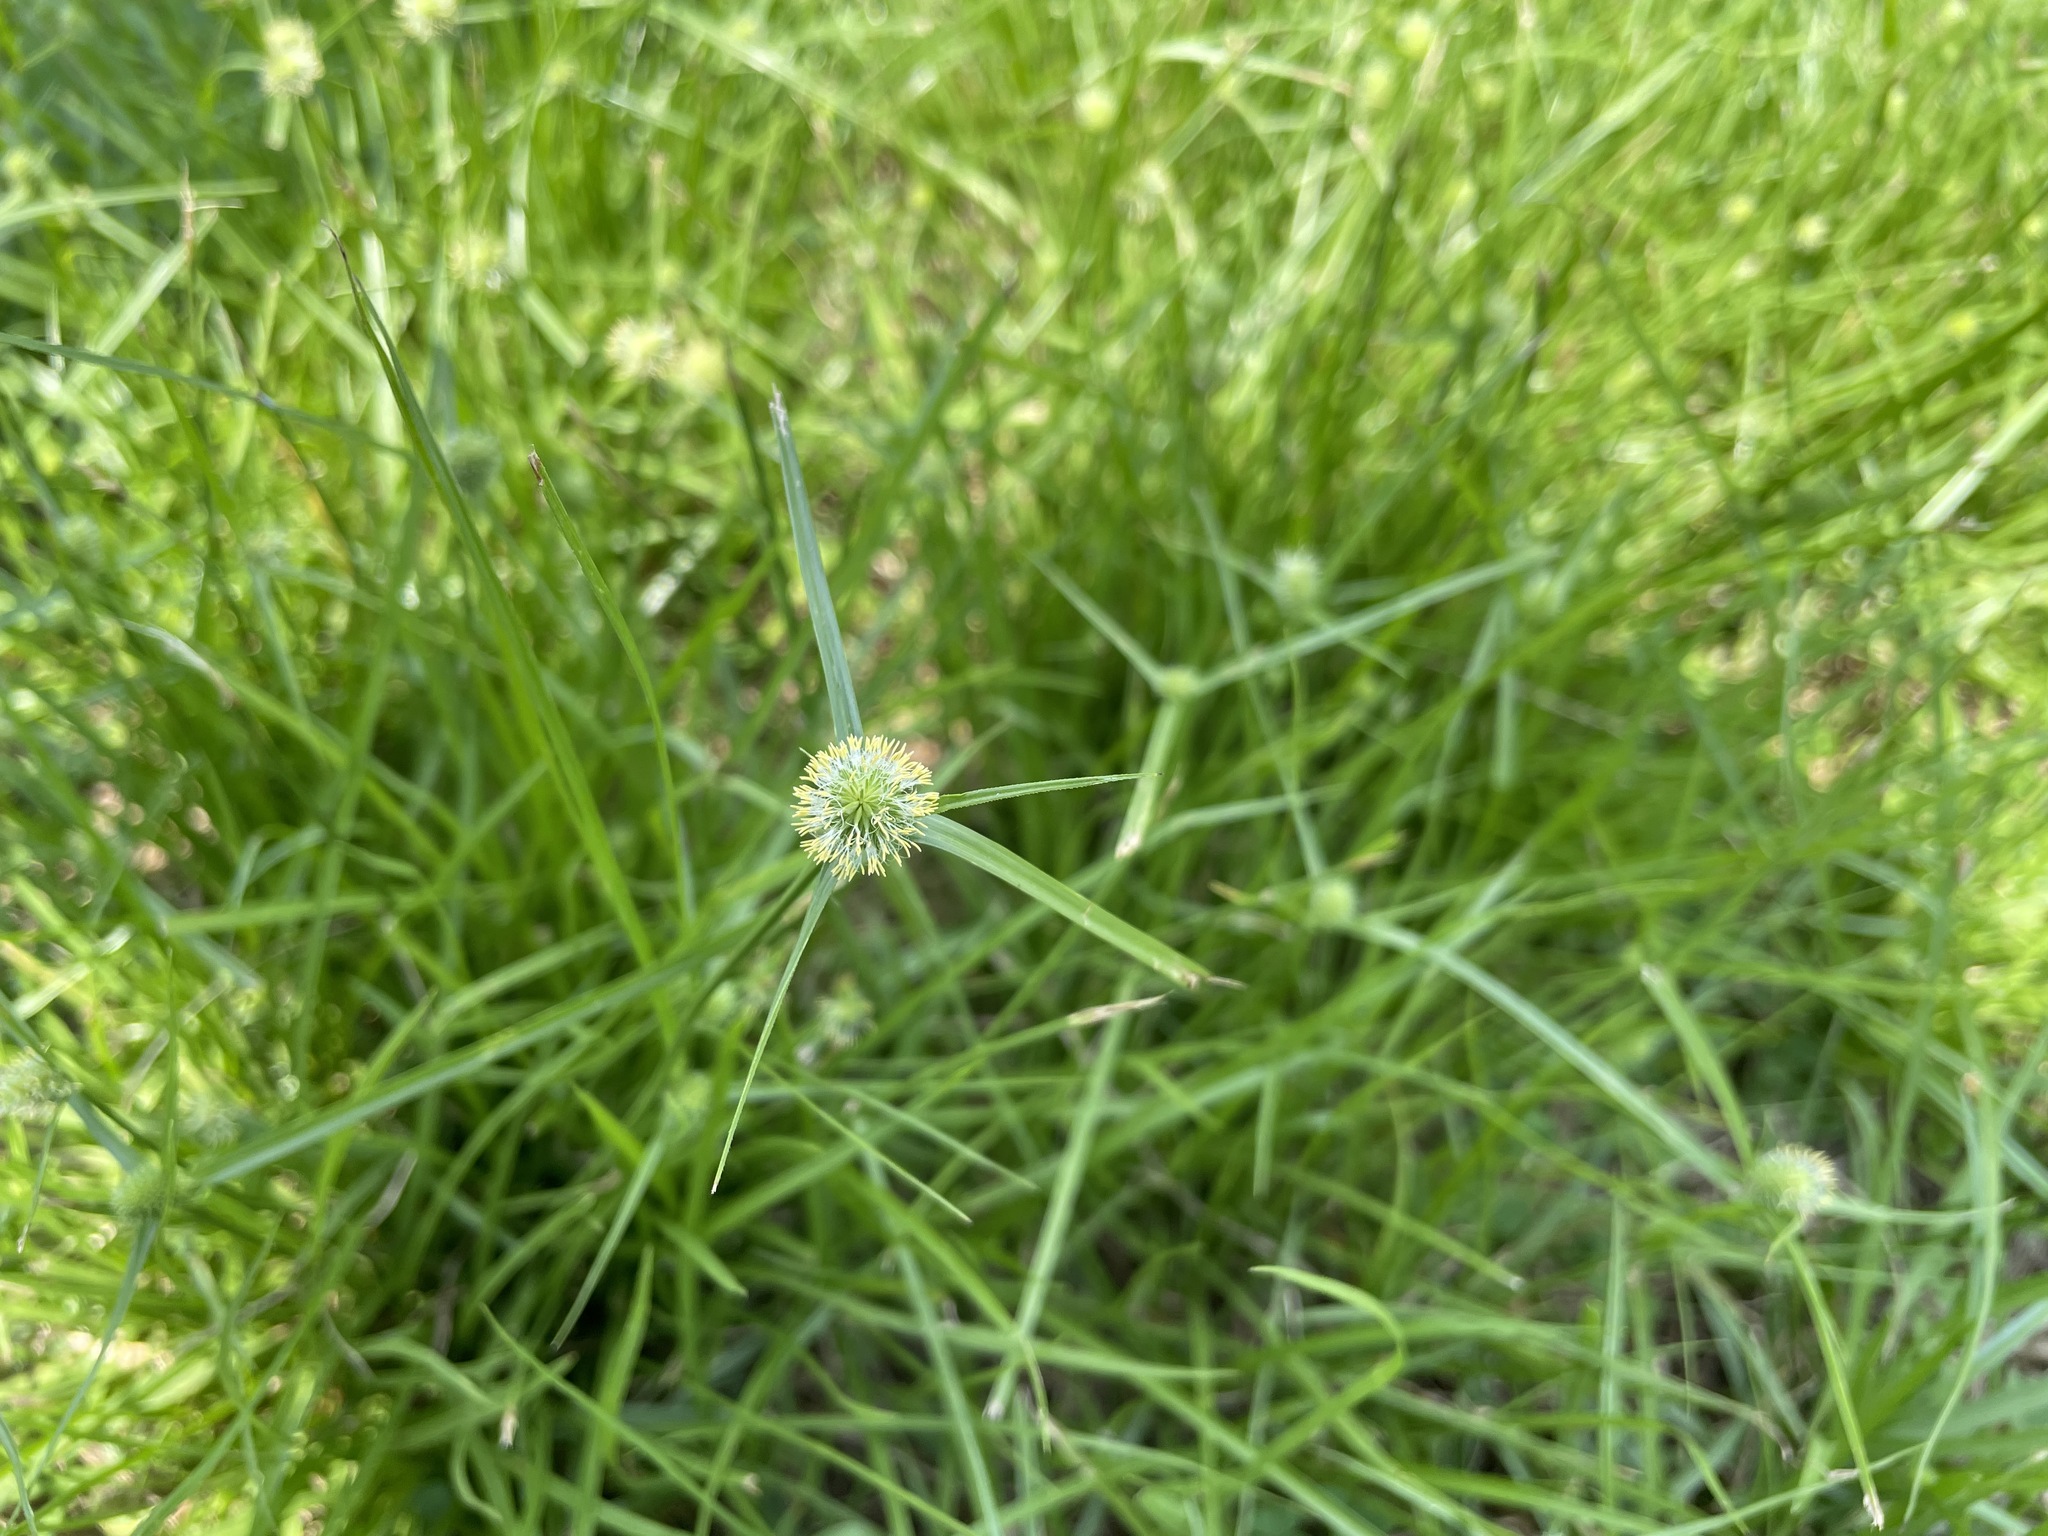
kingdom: Plantae
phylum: Tracheophyta
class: Liliopsida
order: Poales
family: Cyperaceae
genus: Cyperus
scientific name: Cyperus brevifolius
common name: Globe kyllinga
